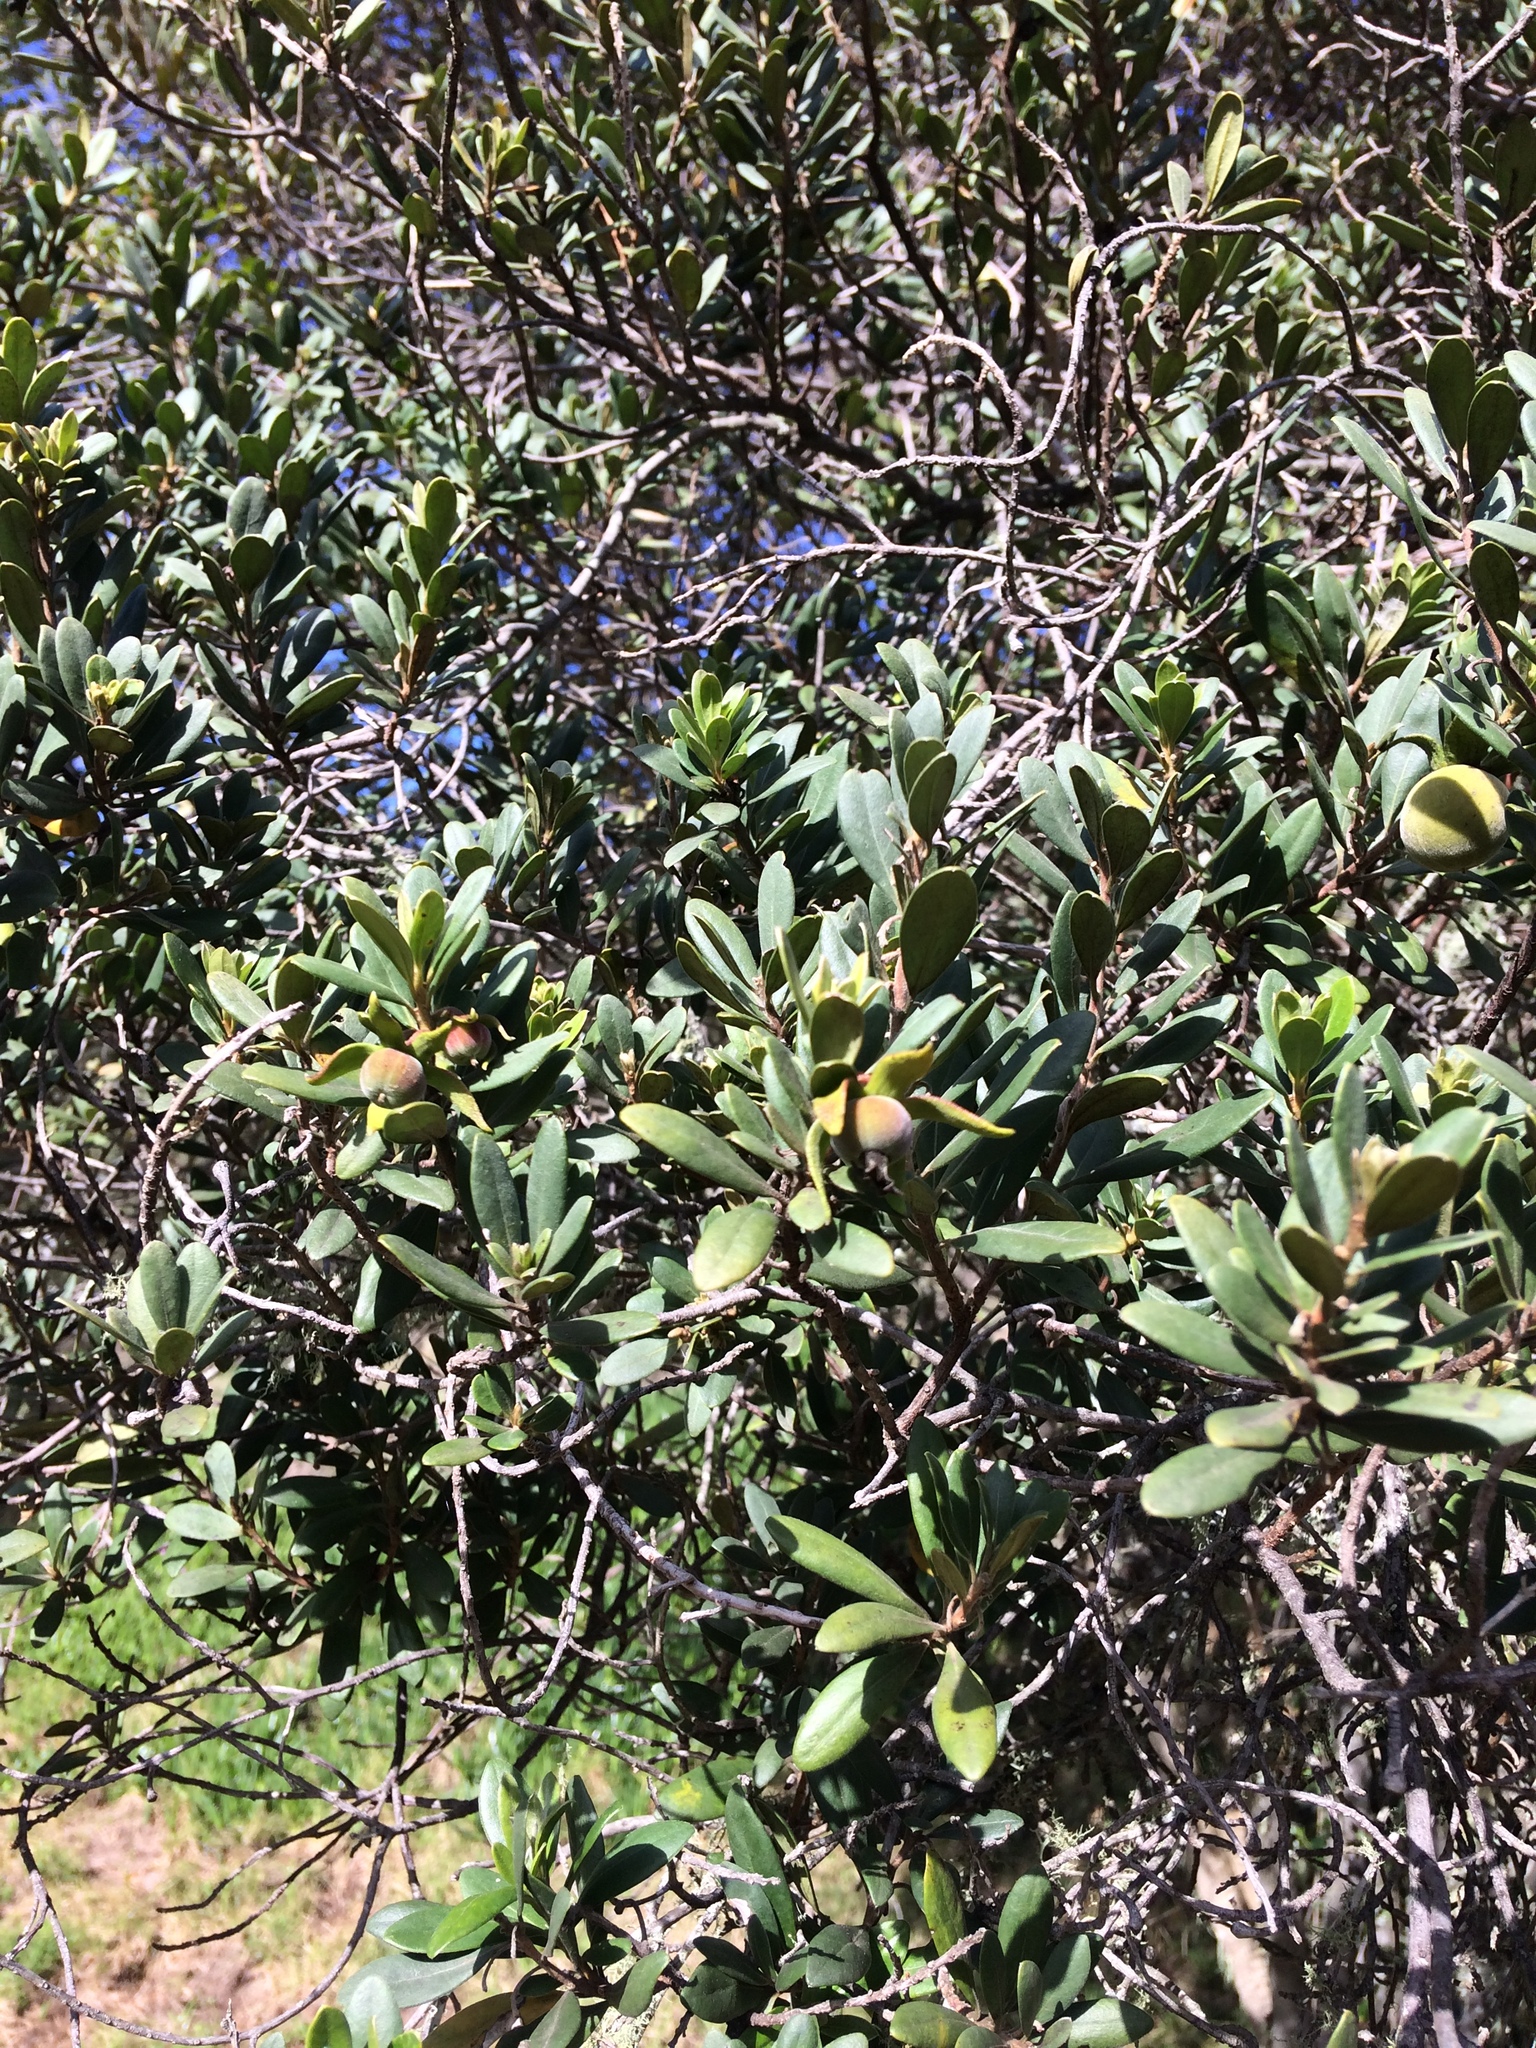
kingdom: Plantae
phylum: Tracheophyta
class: Magnoliopsida
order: Ericales
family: Ebenaceae
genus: Diospyros
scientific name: Diospyros dichrophylla
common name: Common star-apple
